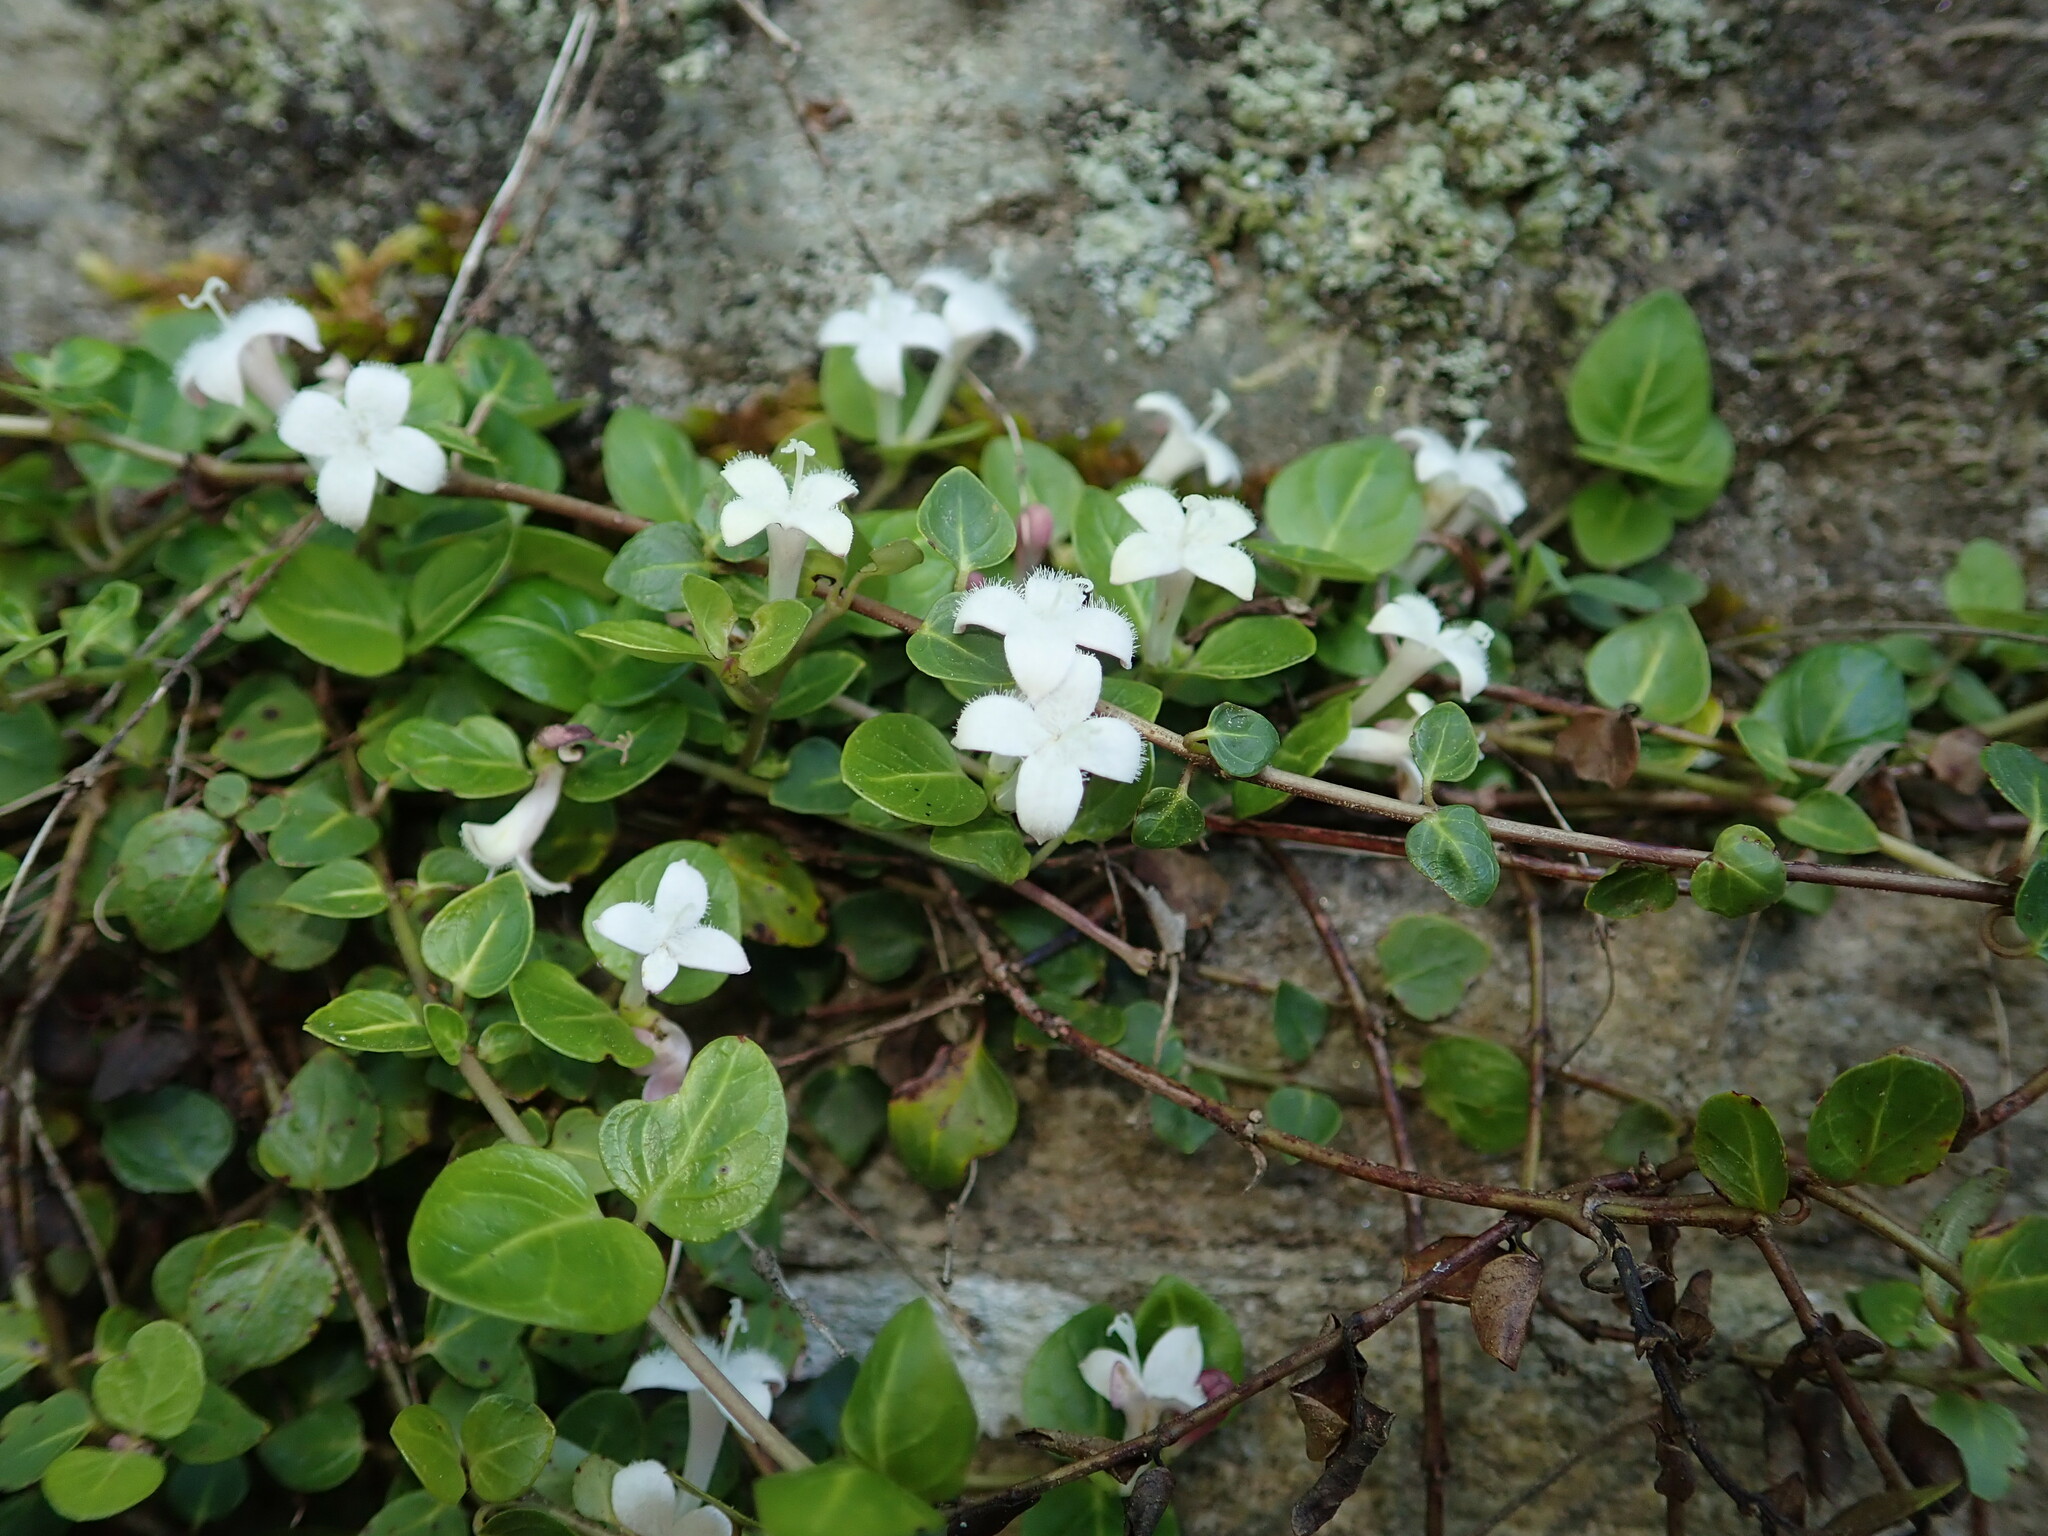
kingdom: Plantae
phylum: Tracheophyta
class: Magnoliopsida
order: Gentianales
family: Rubiaceae
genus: Mitchella
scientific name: Mitchella repens
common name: Partridge-berry
